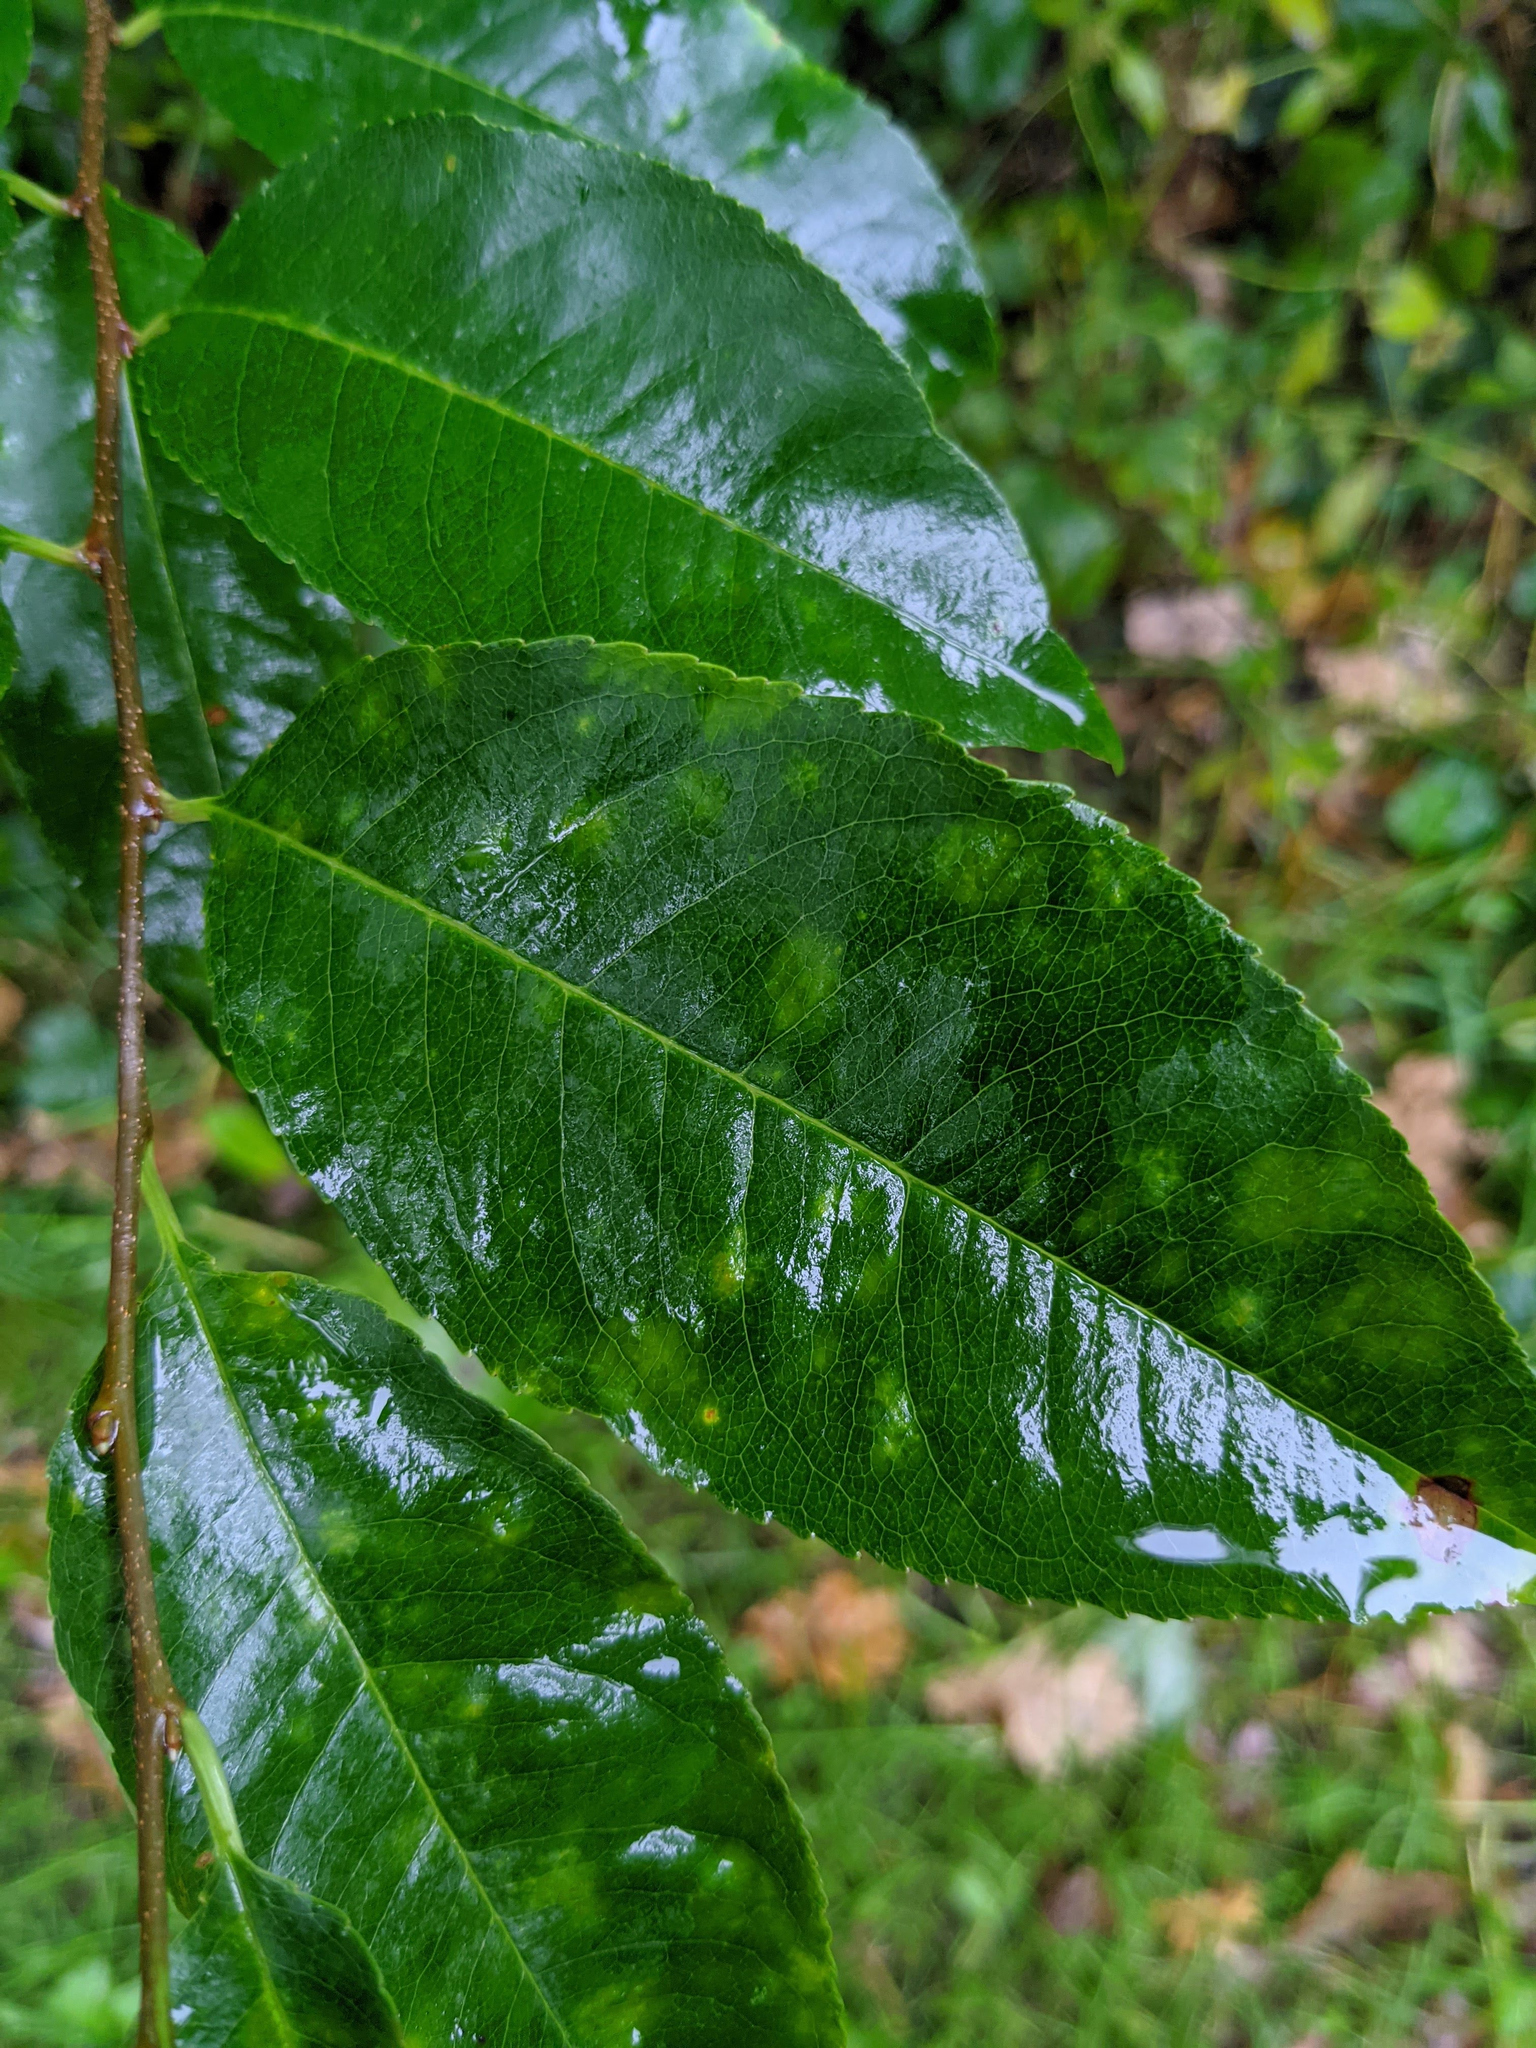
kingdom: Plantae
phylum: Tracheophyta
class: Magnoliopsida
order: Rosales
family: Rosaceae
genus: Prunus
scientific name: Prunus serotina
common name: Black cherry
